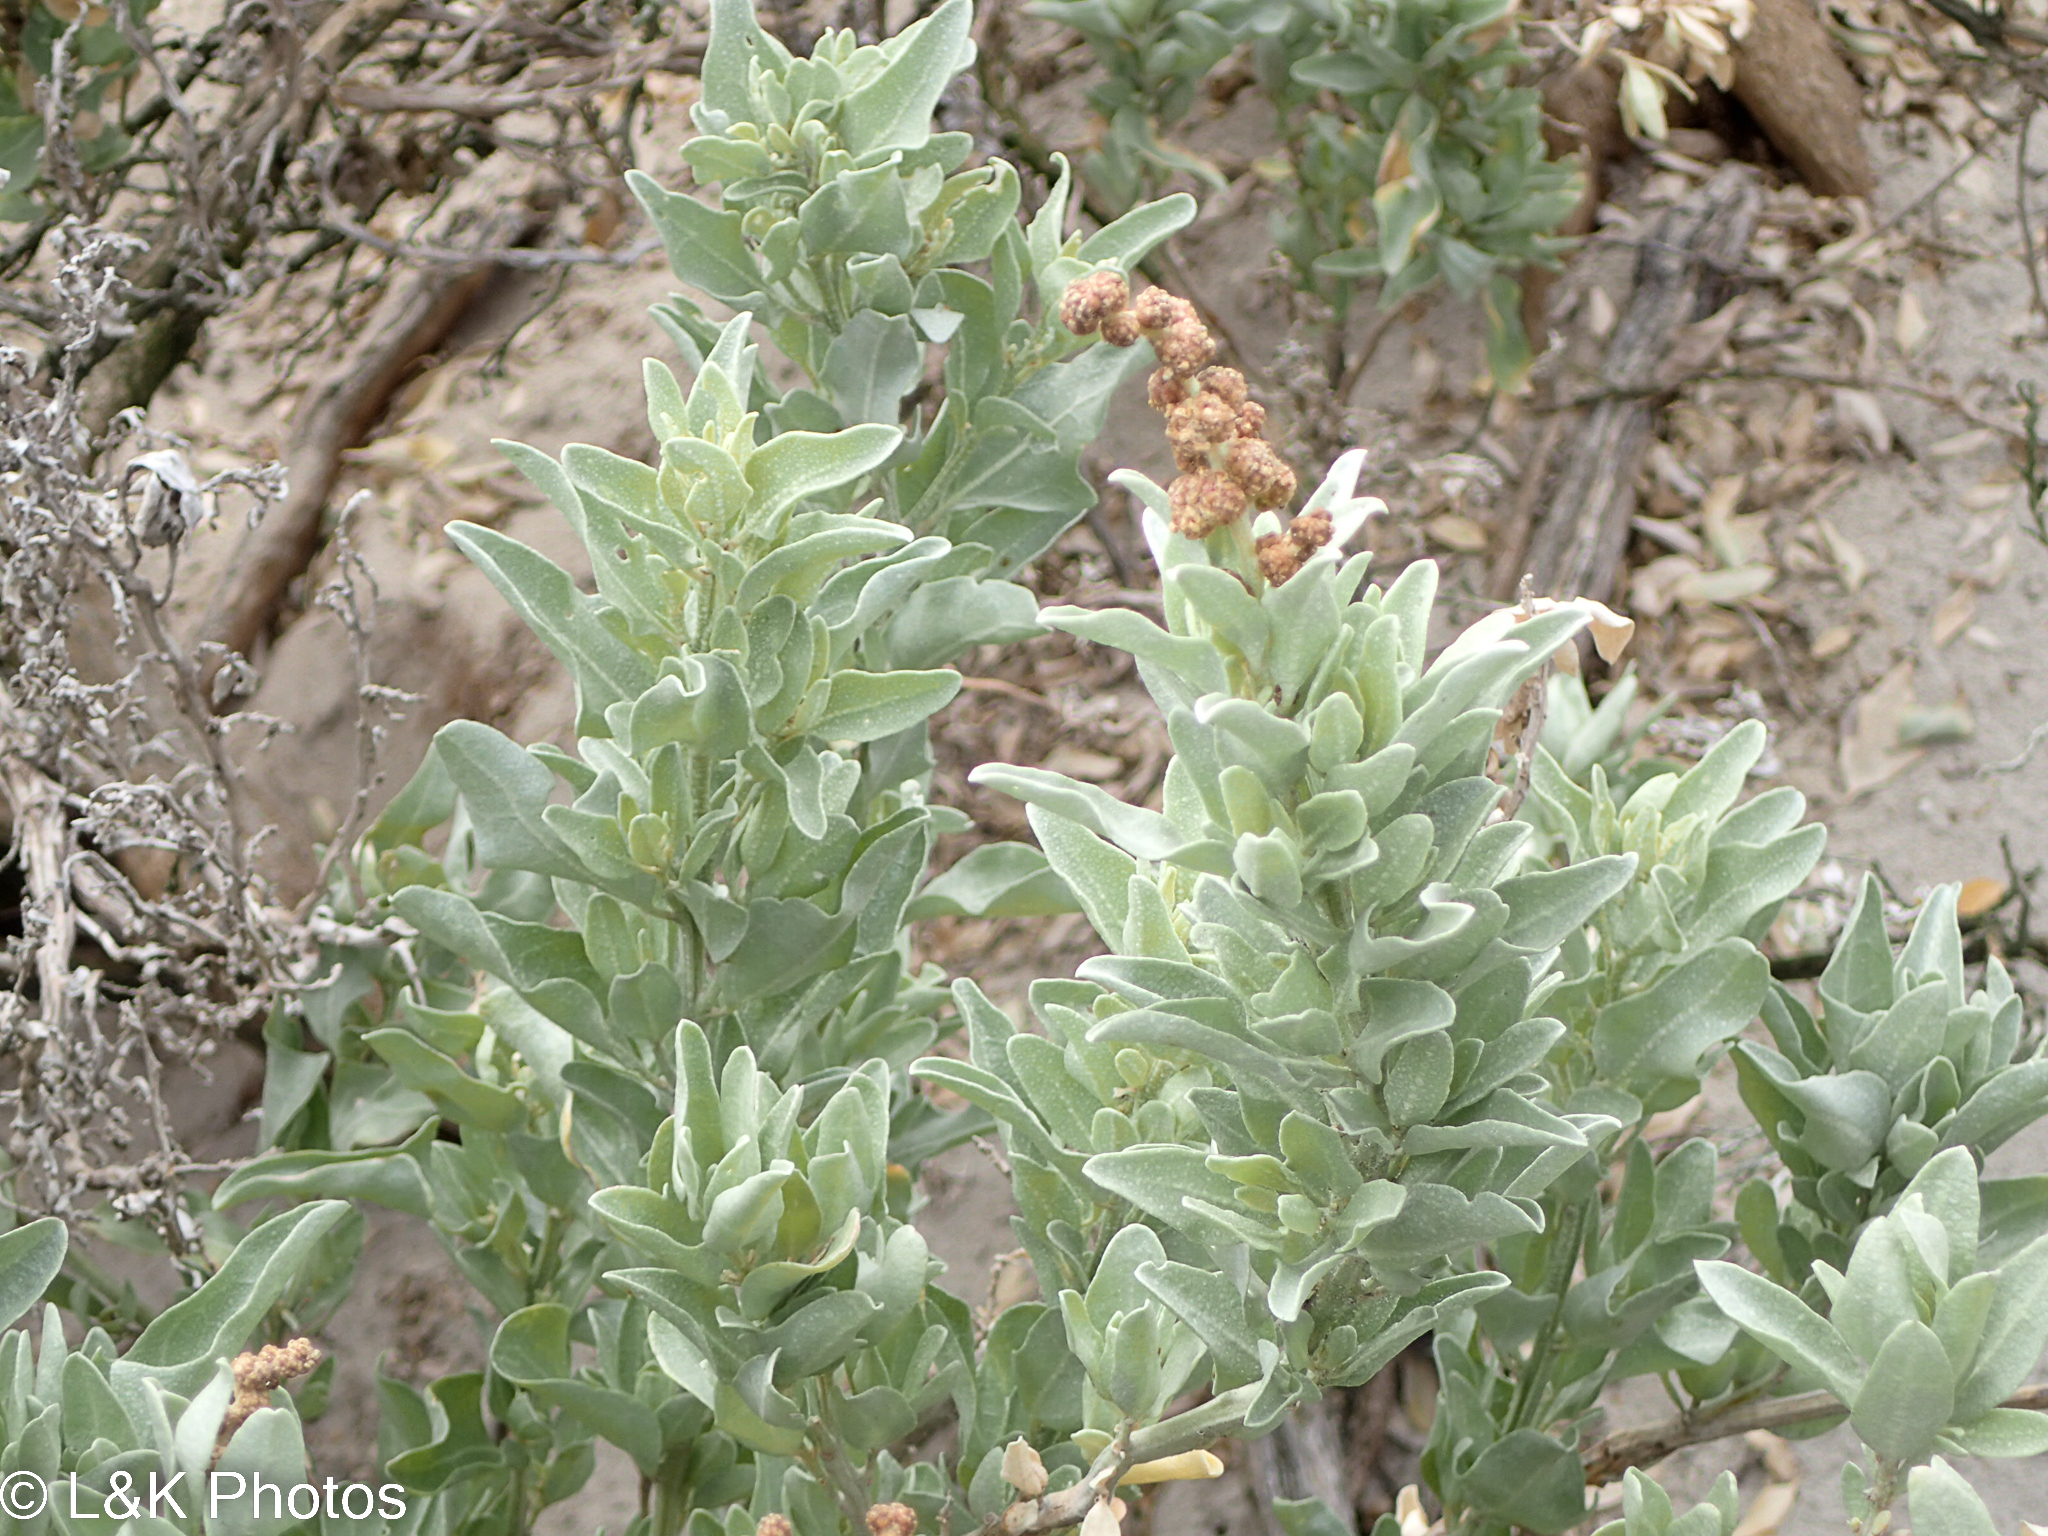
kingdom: Plantae
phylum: Tracheophyta
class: Magnoliopsida
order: Caryophyllales
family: Amaranthaceae
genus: Atriplex
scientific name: Atriplex cinerea
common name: Grey saltbush
